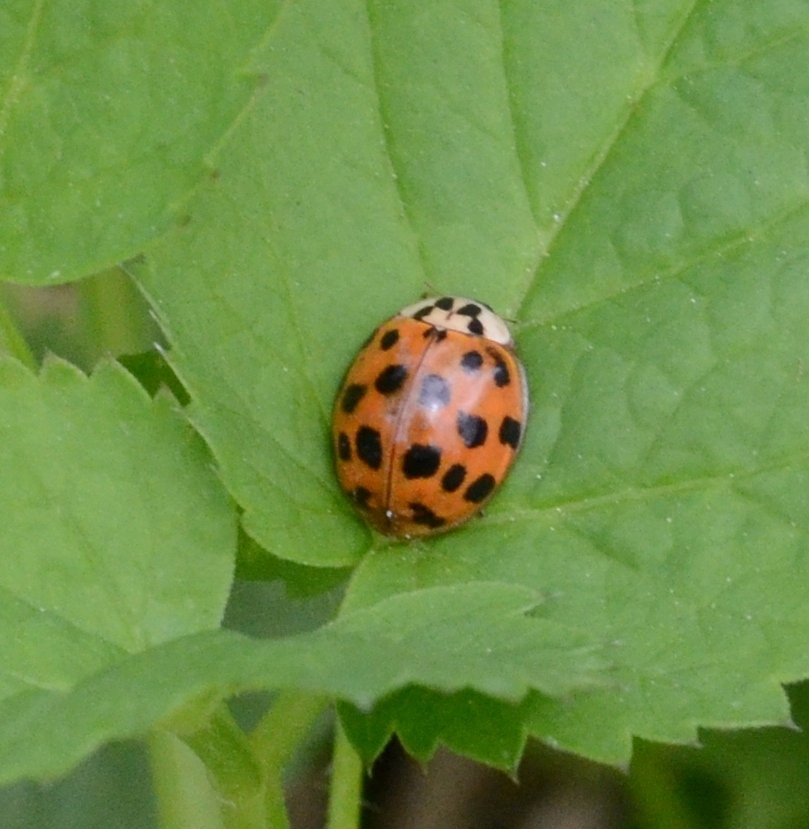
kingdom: Animalia
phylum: Arthropoda
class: Insecta
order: Coleoptera
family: Coccinellidae
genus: Harmonia
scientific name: Harmonia axyridis
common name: Harlequin ladybird
